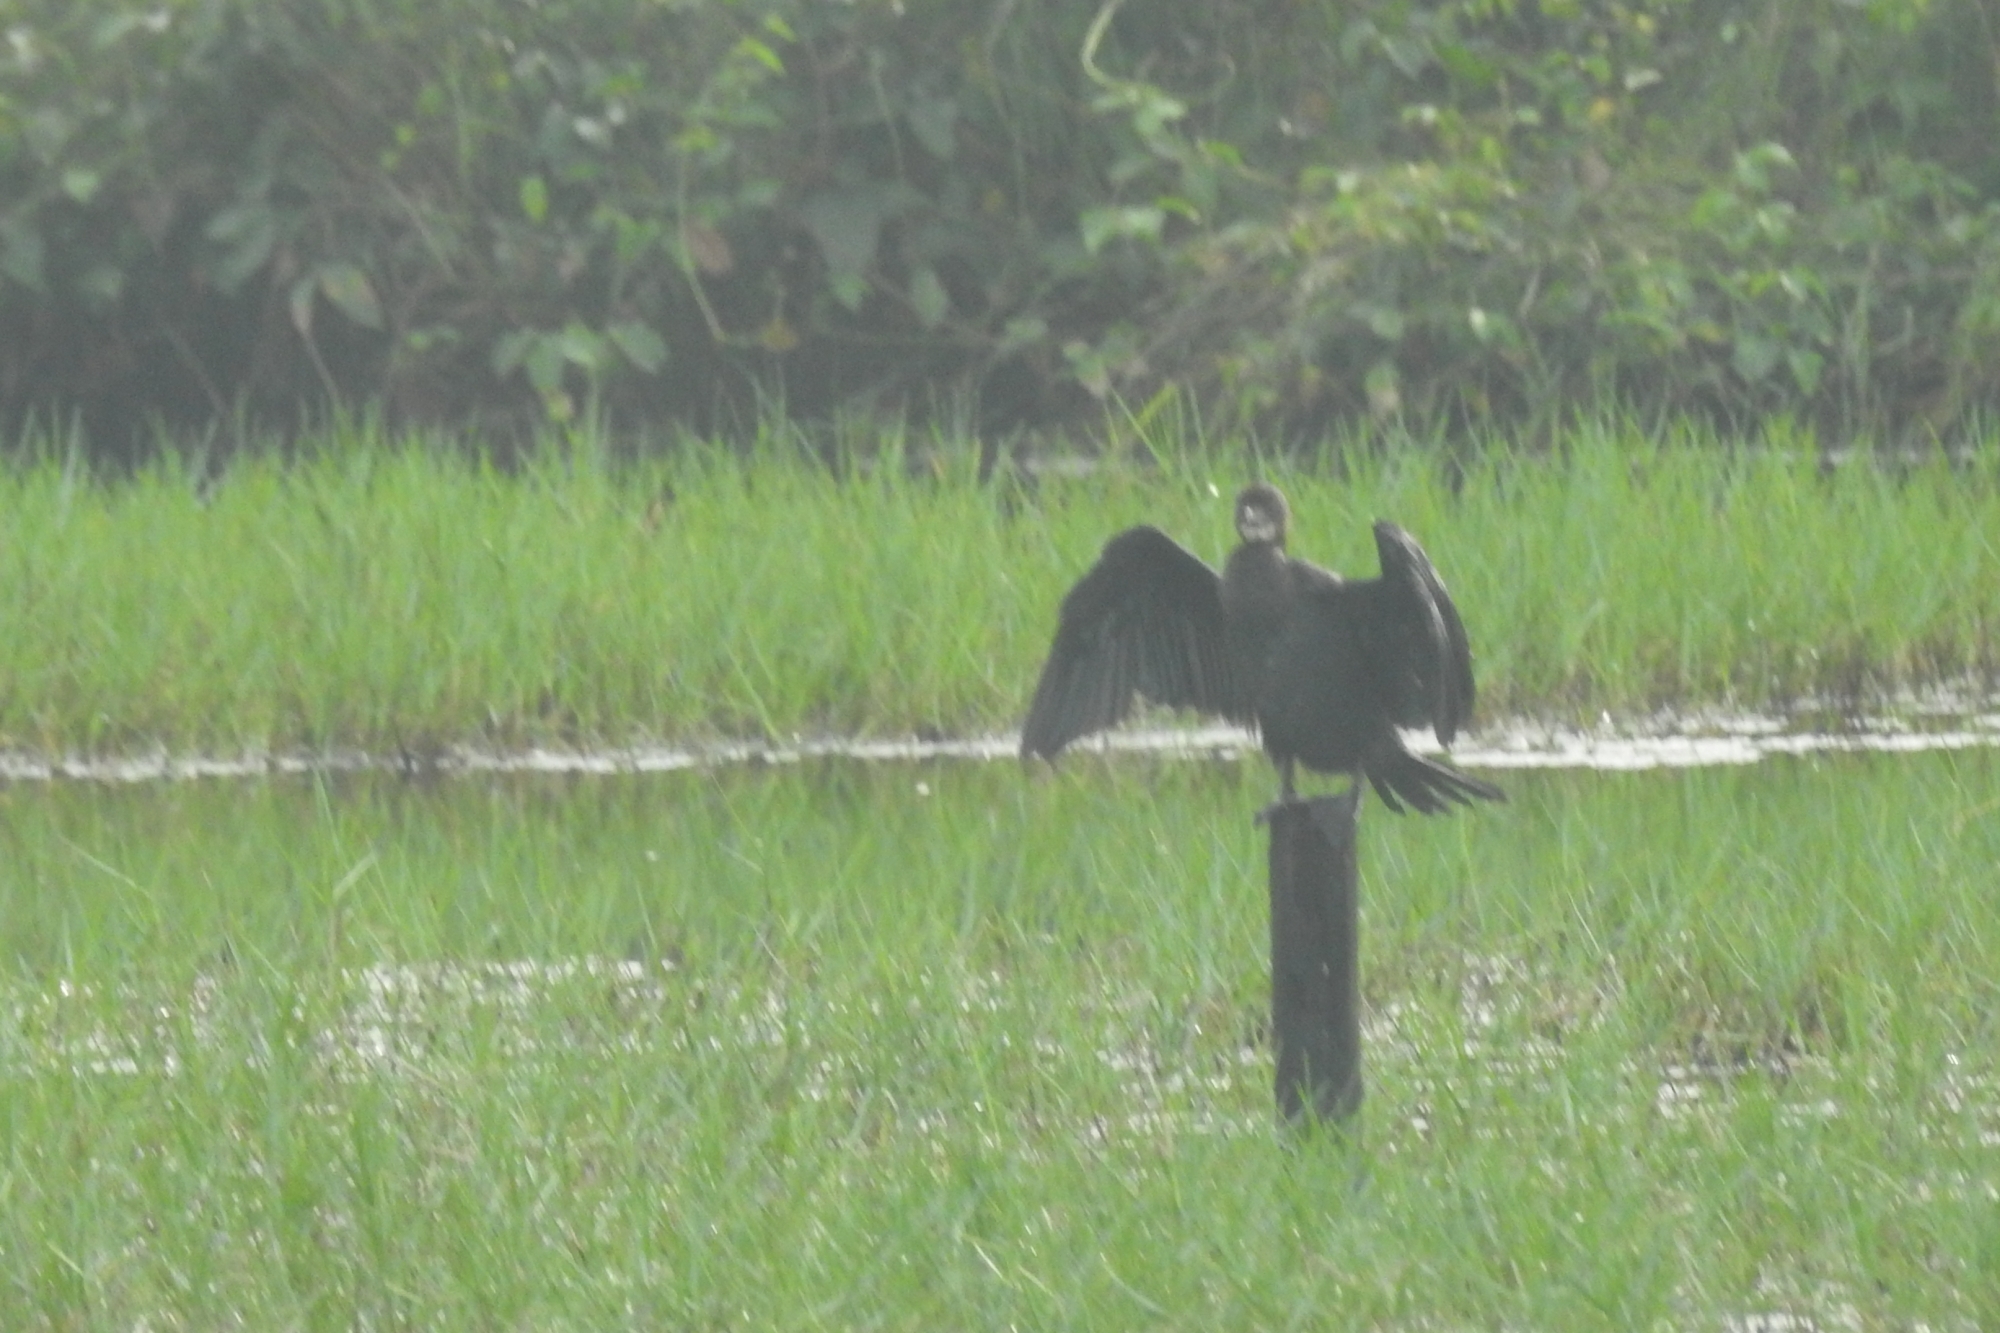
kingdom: Animalia
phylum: Chordata
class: Aves
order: Suliformes
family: Phalacrocoracidae
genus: Microcarbo
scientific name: Microcarbo niger
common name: Little cormorant
